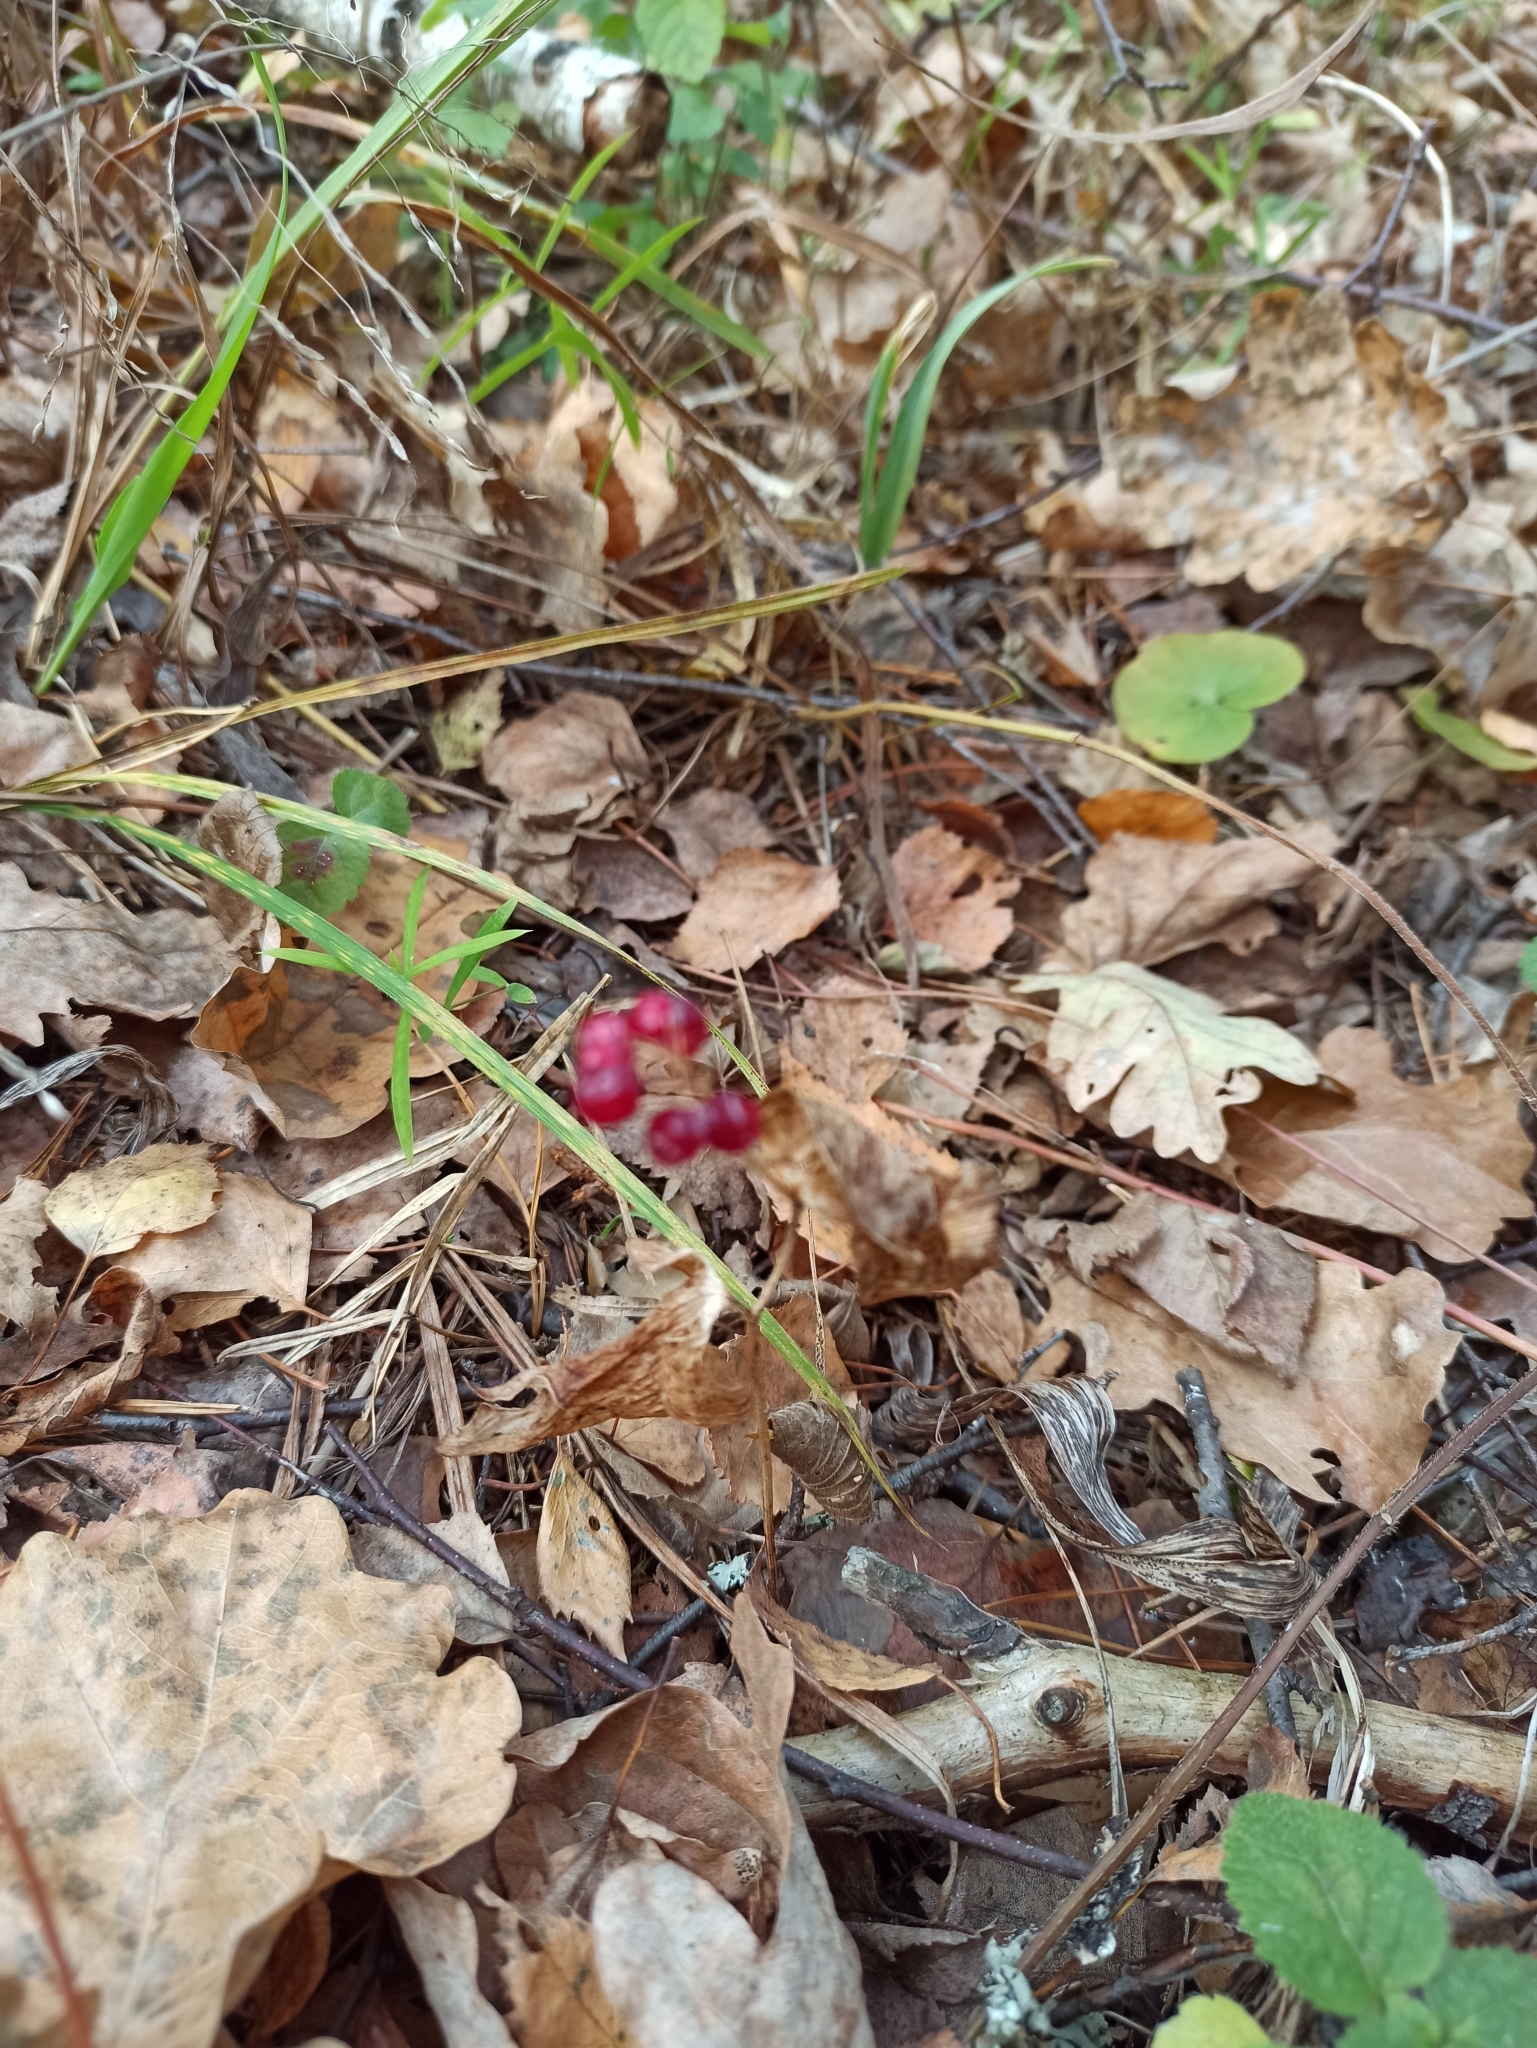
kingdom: Plantae
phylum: Tracheophyta
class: Liliopsida
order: Asparagales
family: Asparagaceae
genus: Maianthemum
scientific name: Maianthemum bifolium
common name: May lily
